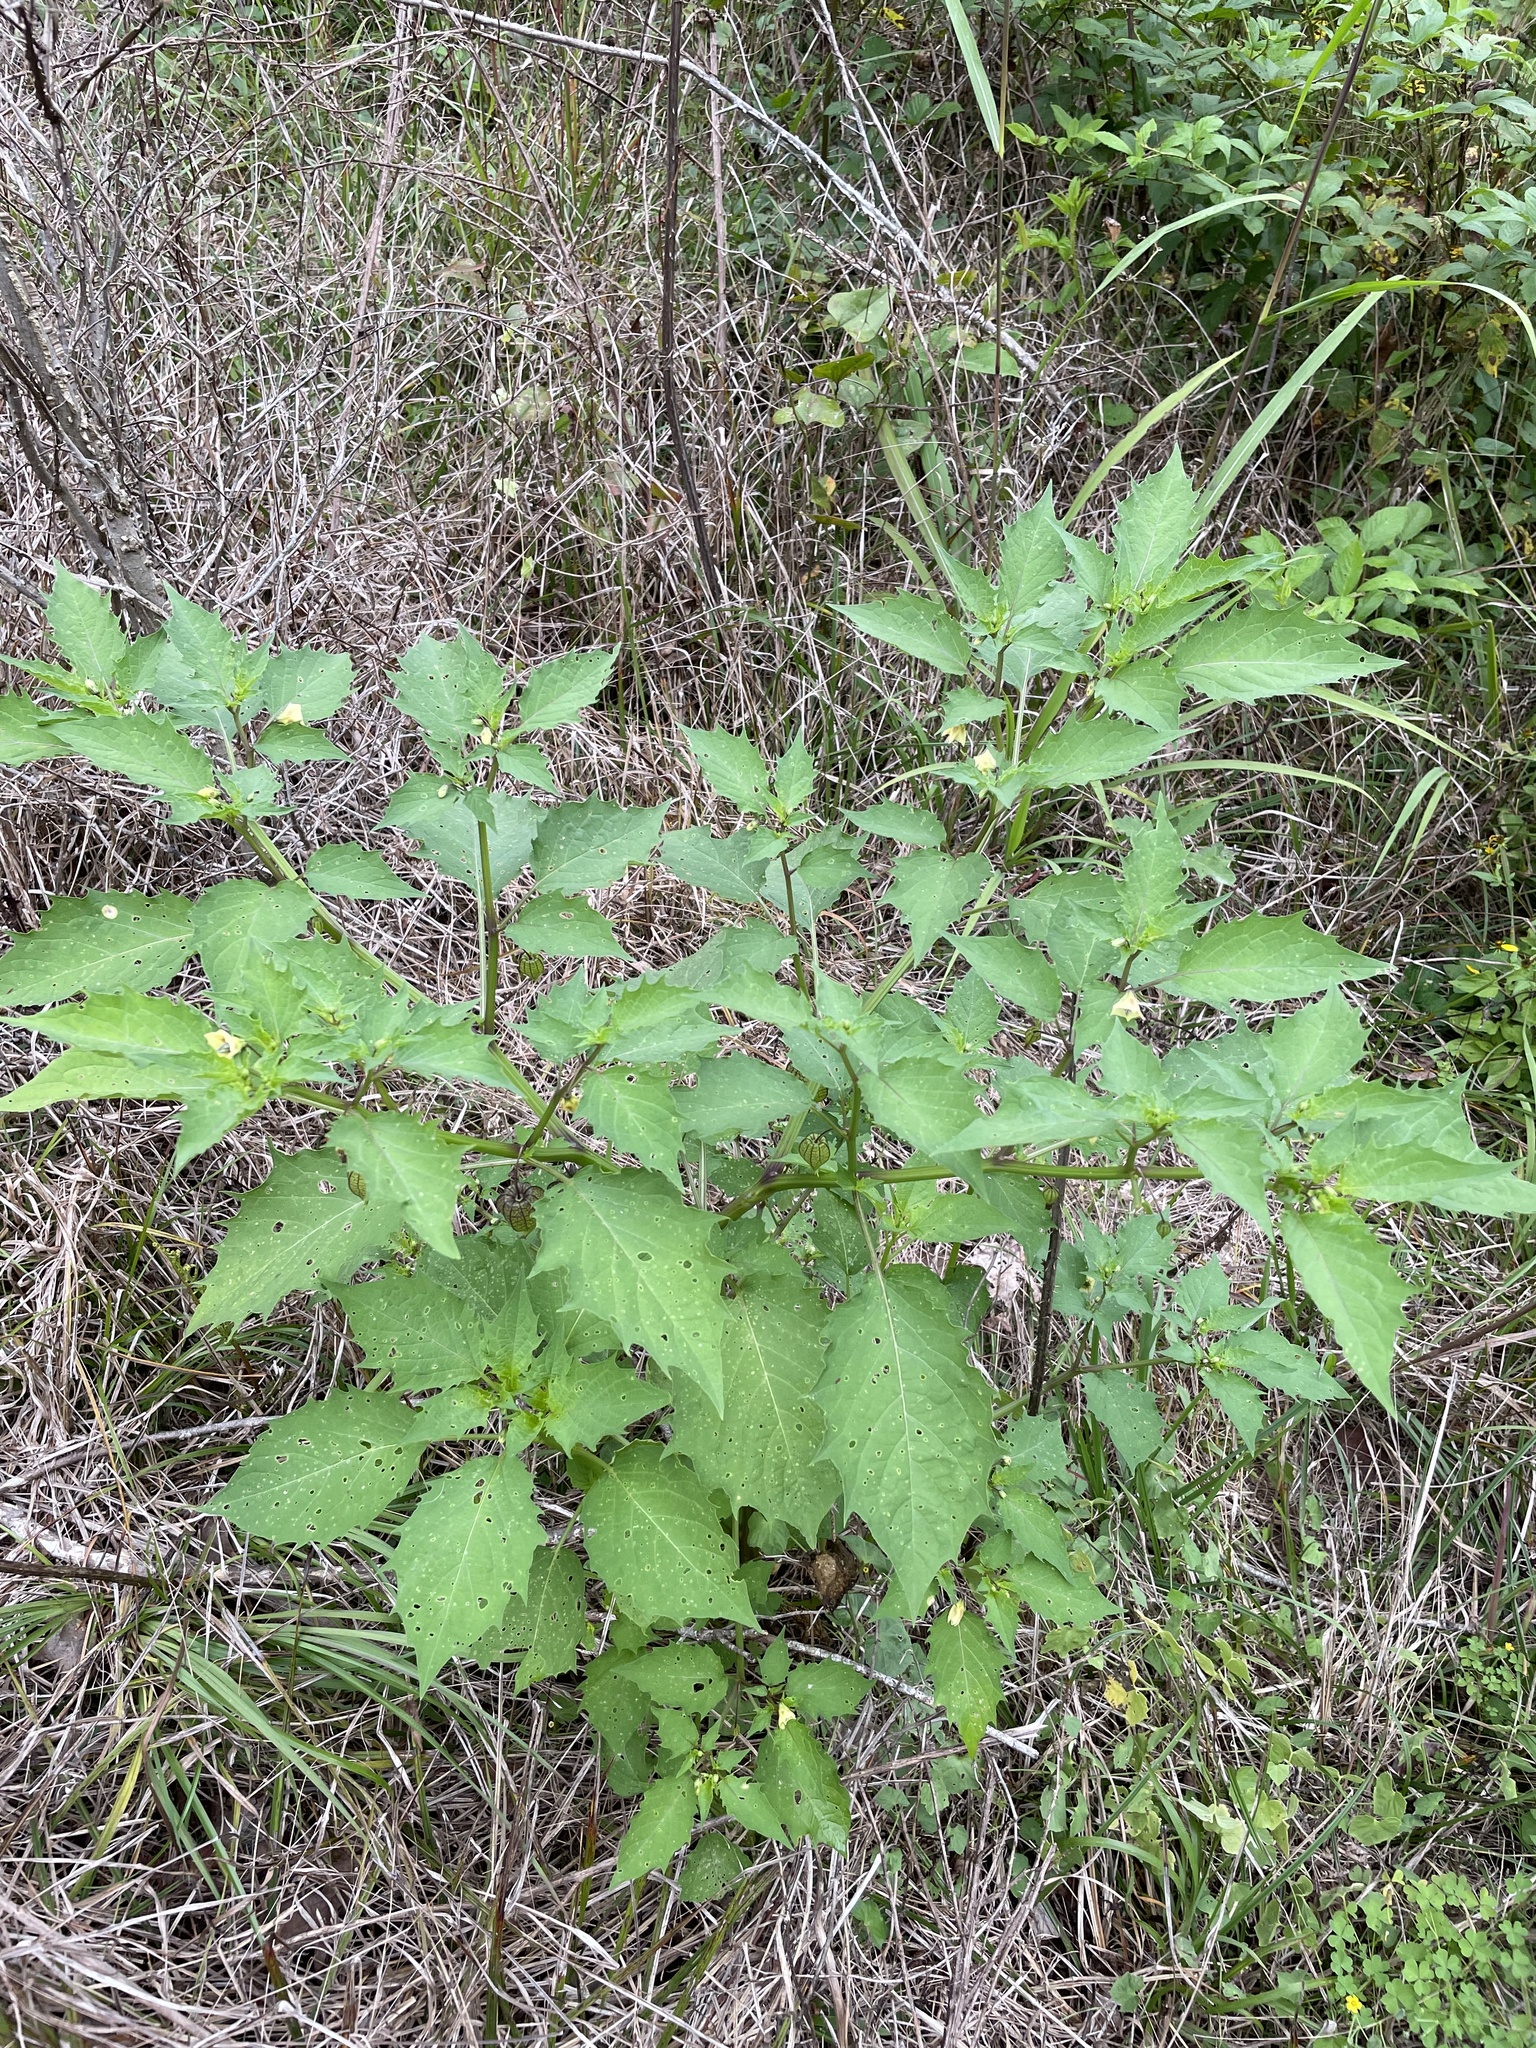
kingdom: Plantae
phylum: Tracheophyta
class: Magnoliopsida
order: Solanales
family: Solanaceae
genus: Physalis
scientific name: Physalis angulata
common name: Angular winter-cherry
